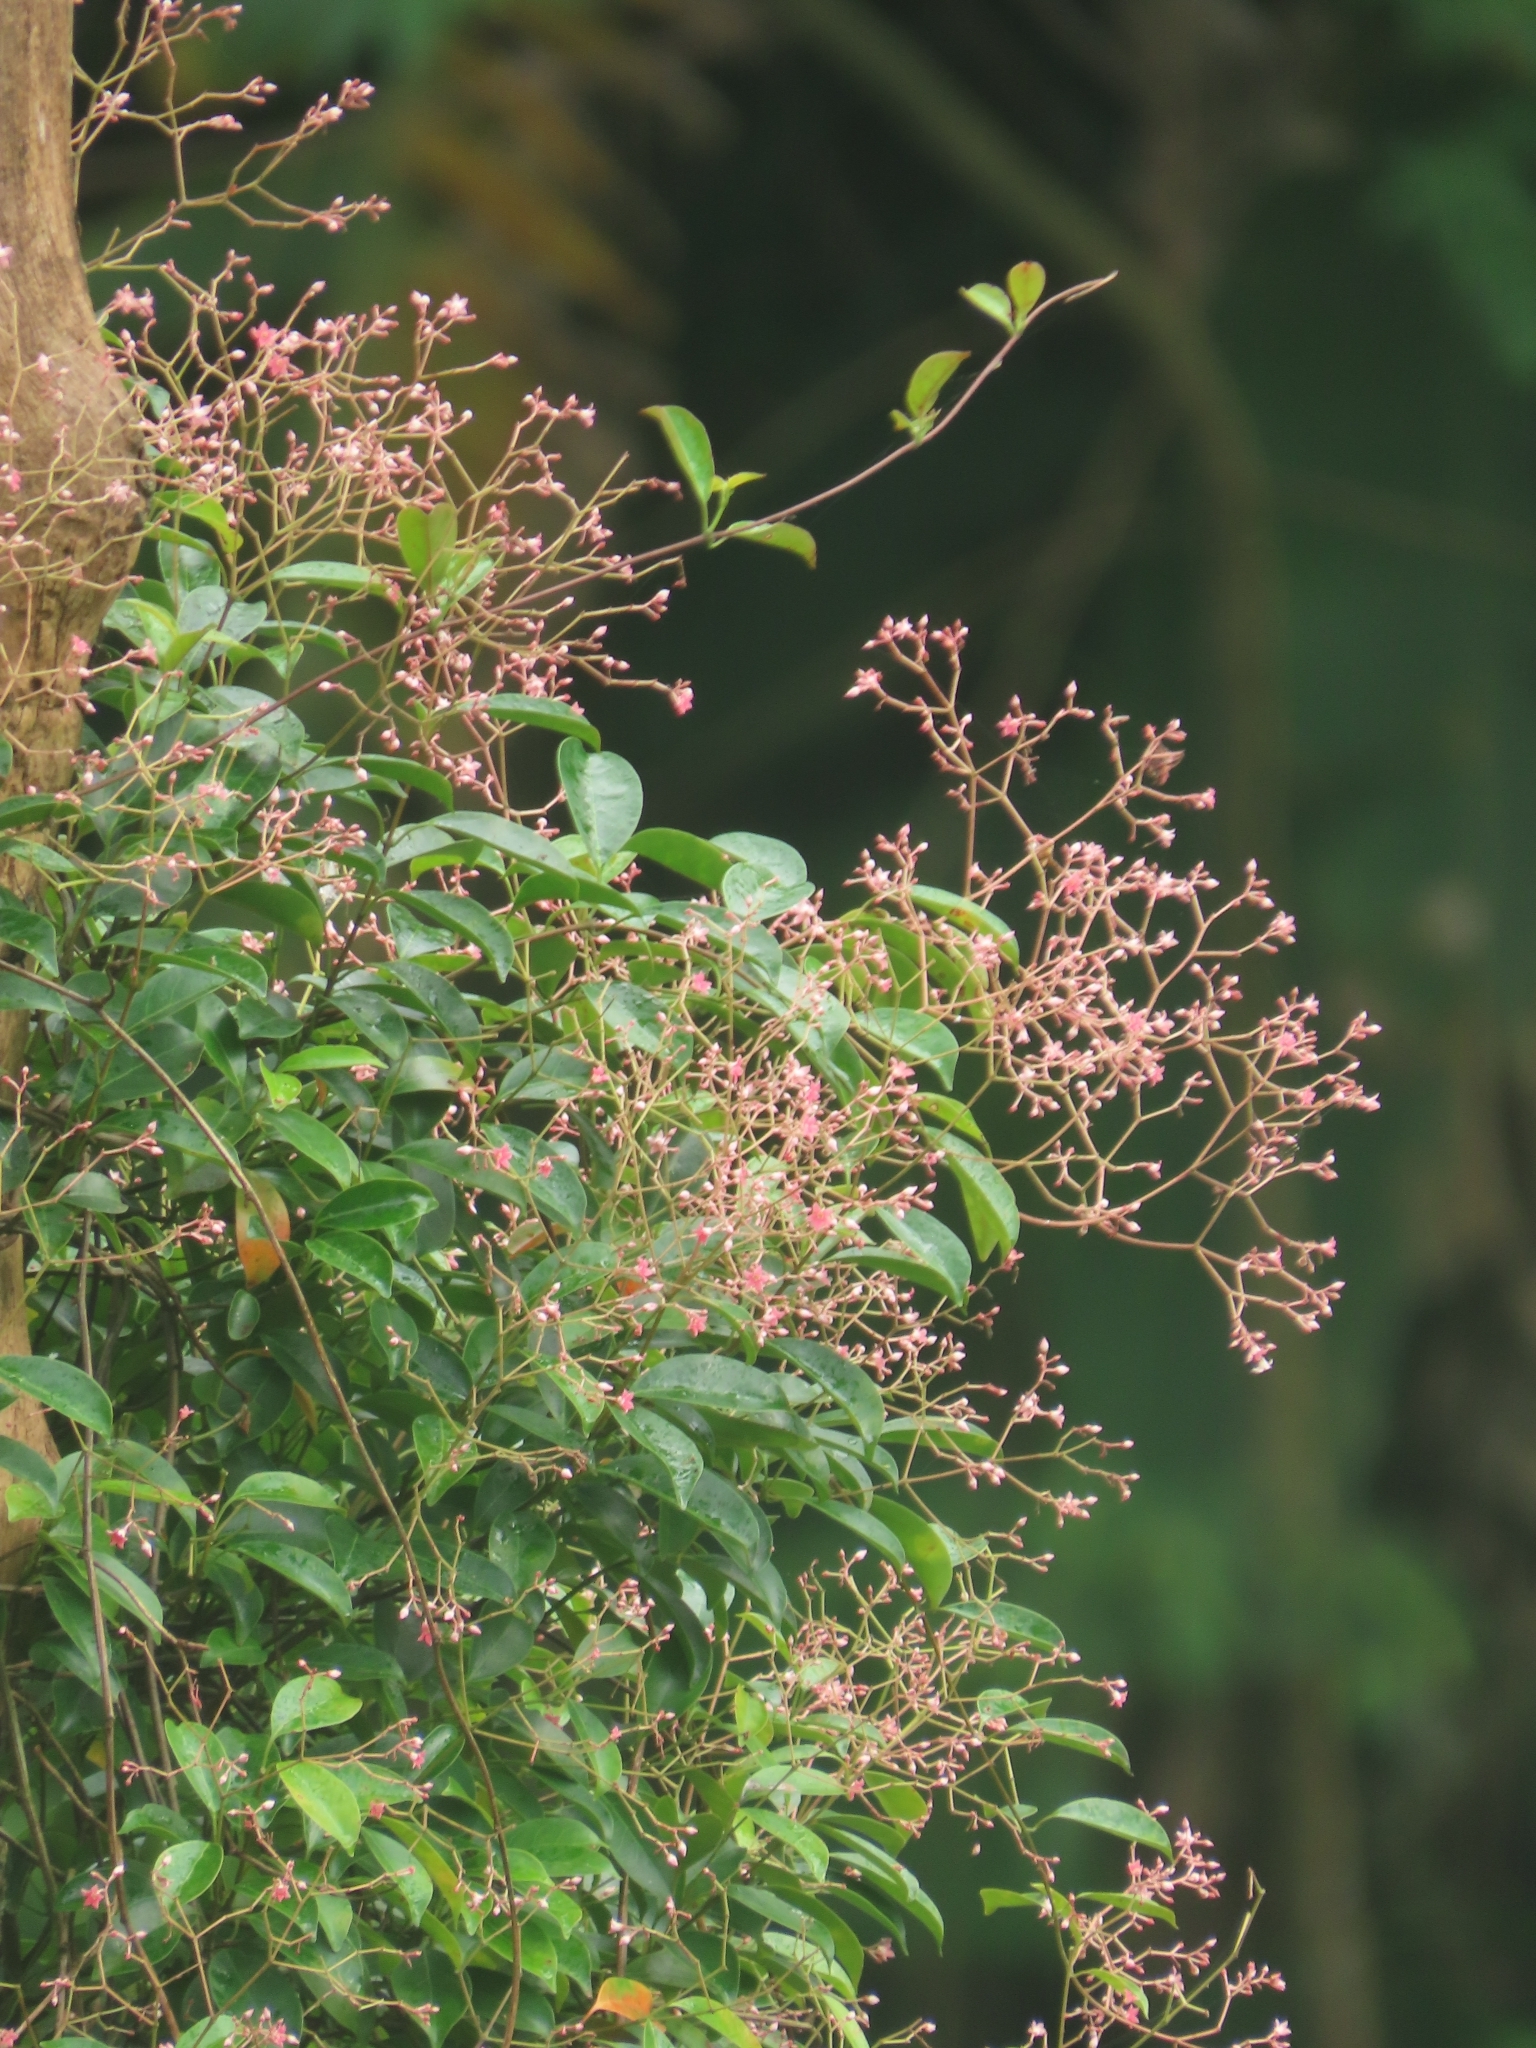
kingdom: Plantae
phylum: Tracheophyta
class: Magnoliopsida
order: Gentianales
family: Apocynaceae
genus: Urceola
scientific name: Urceola rosea
